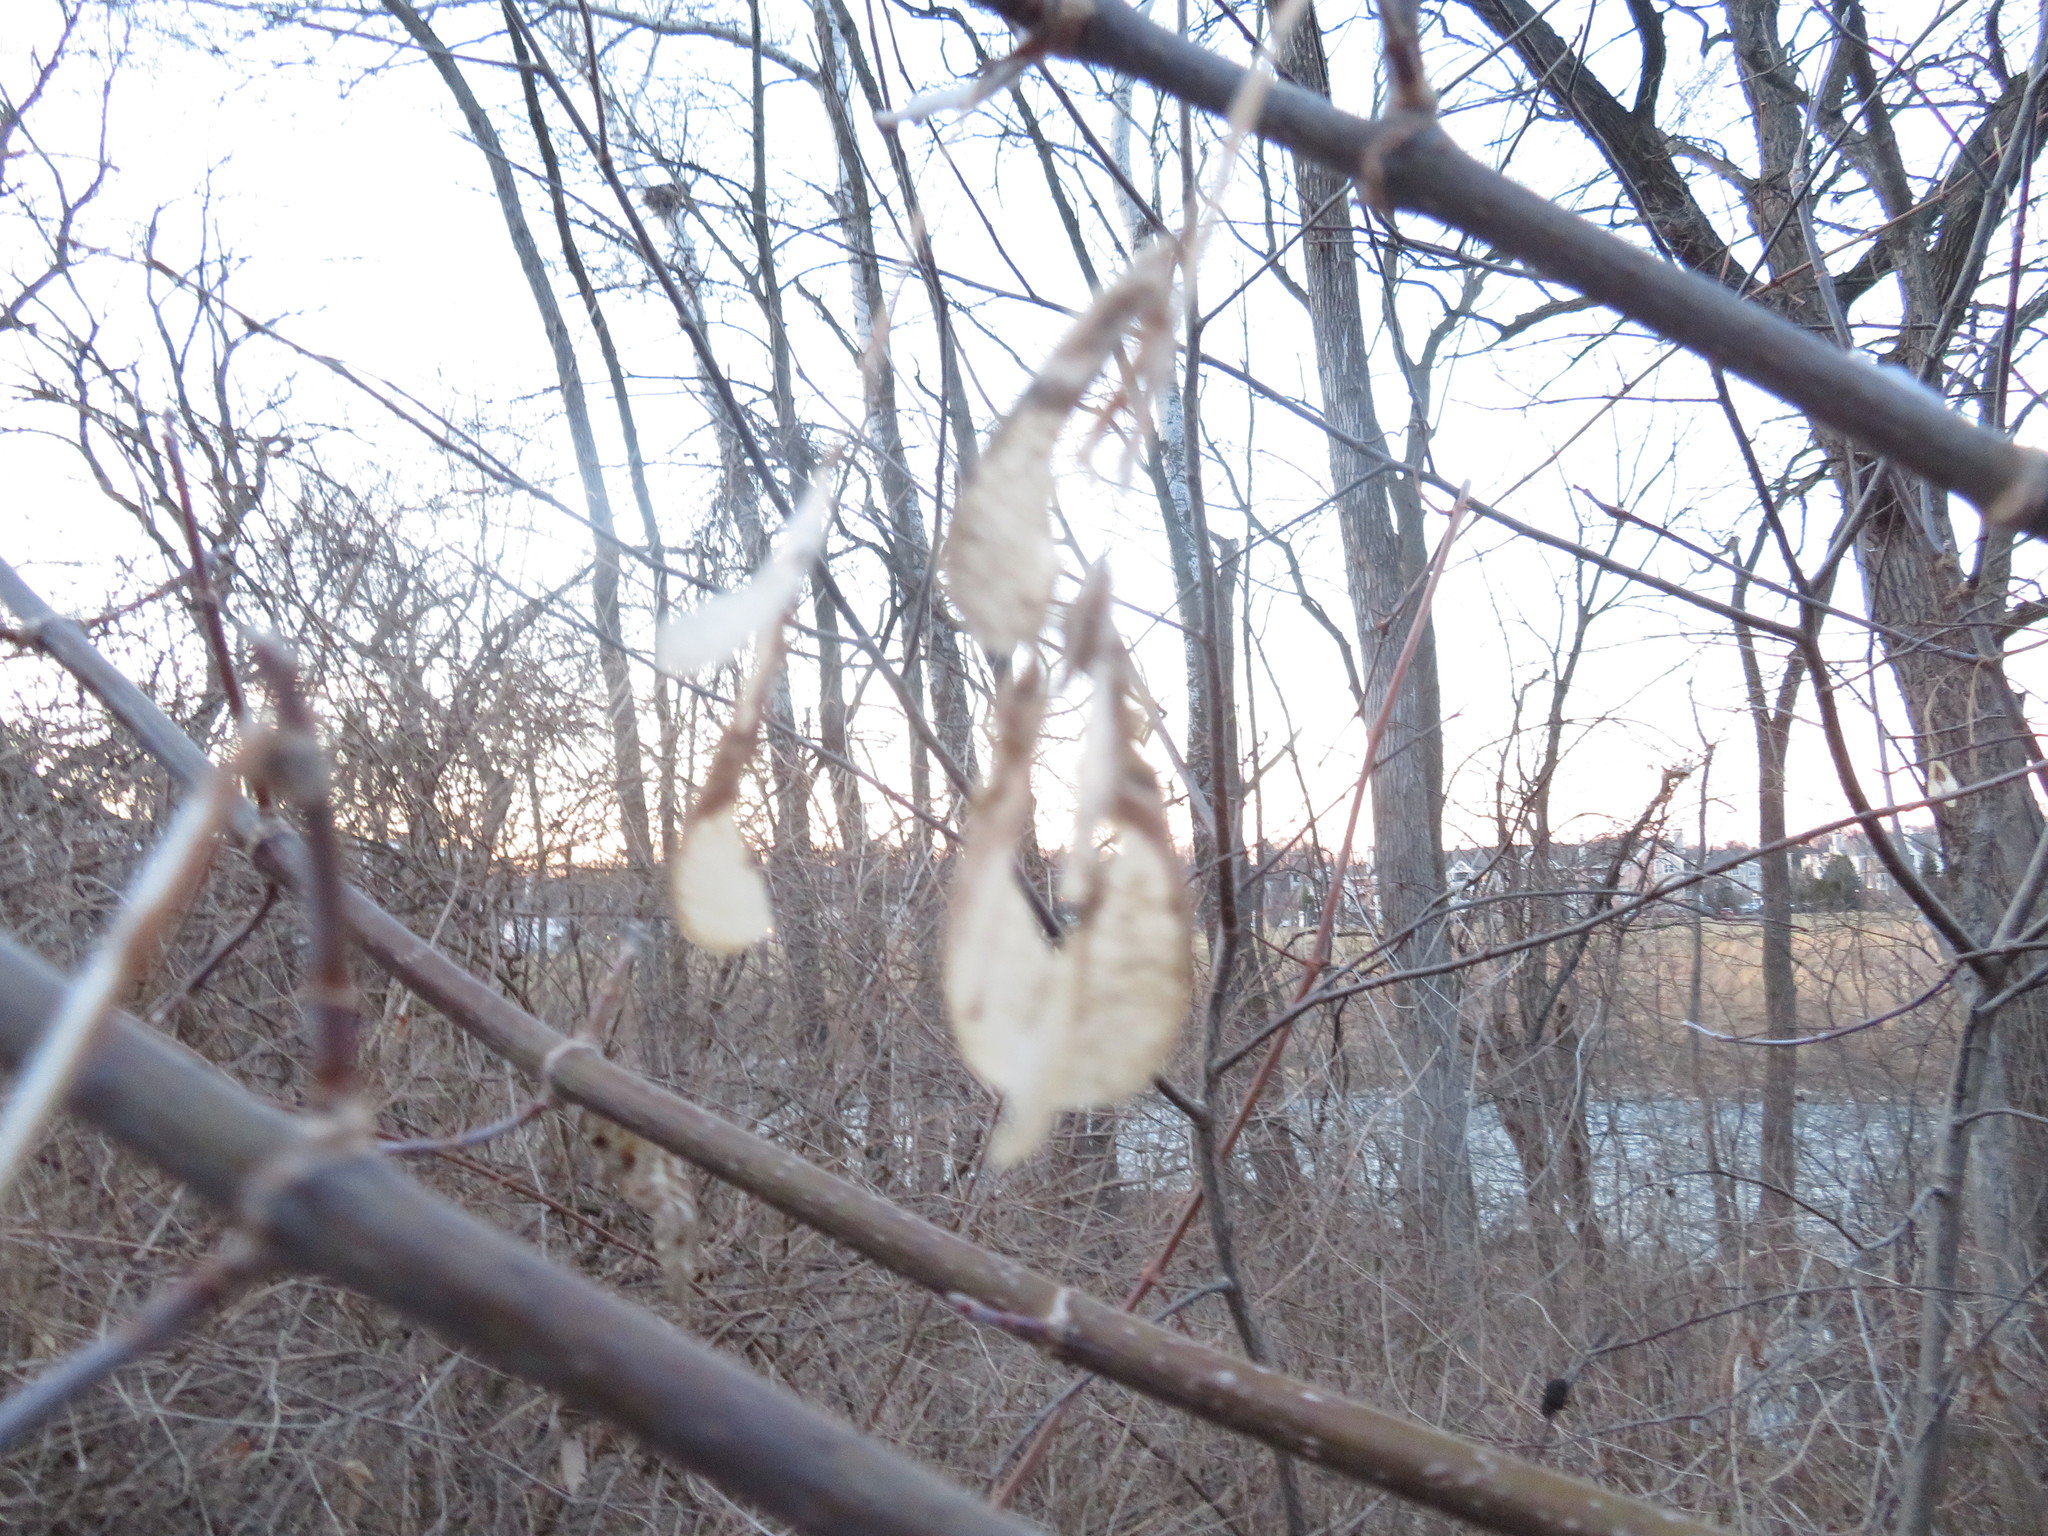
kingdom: Plantae
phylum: Tracheophyta
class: Magnoliopsida
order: Sapindales
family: Sapindaceae
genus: Acer
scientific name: Acer negundo
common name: Ashleaf maple
